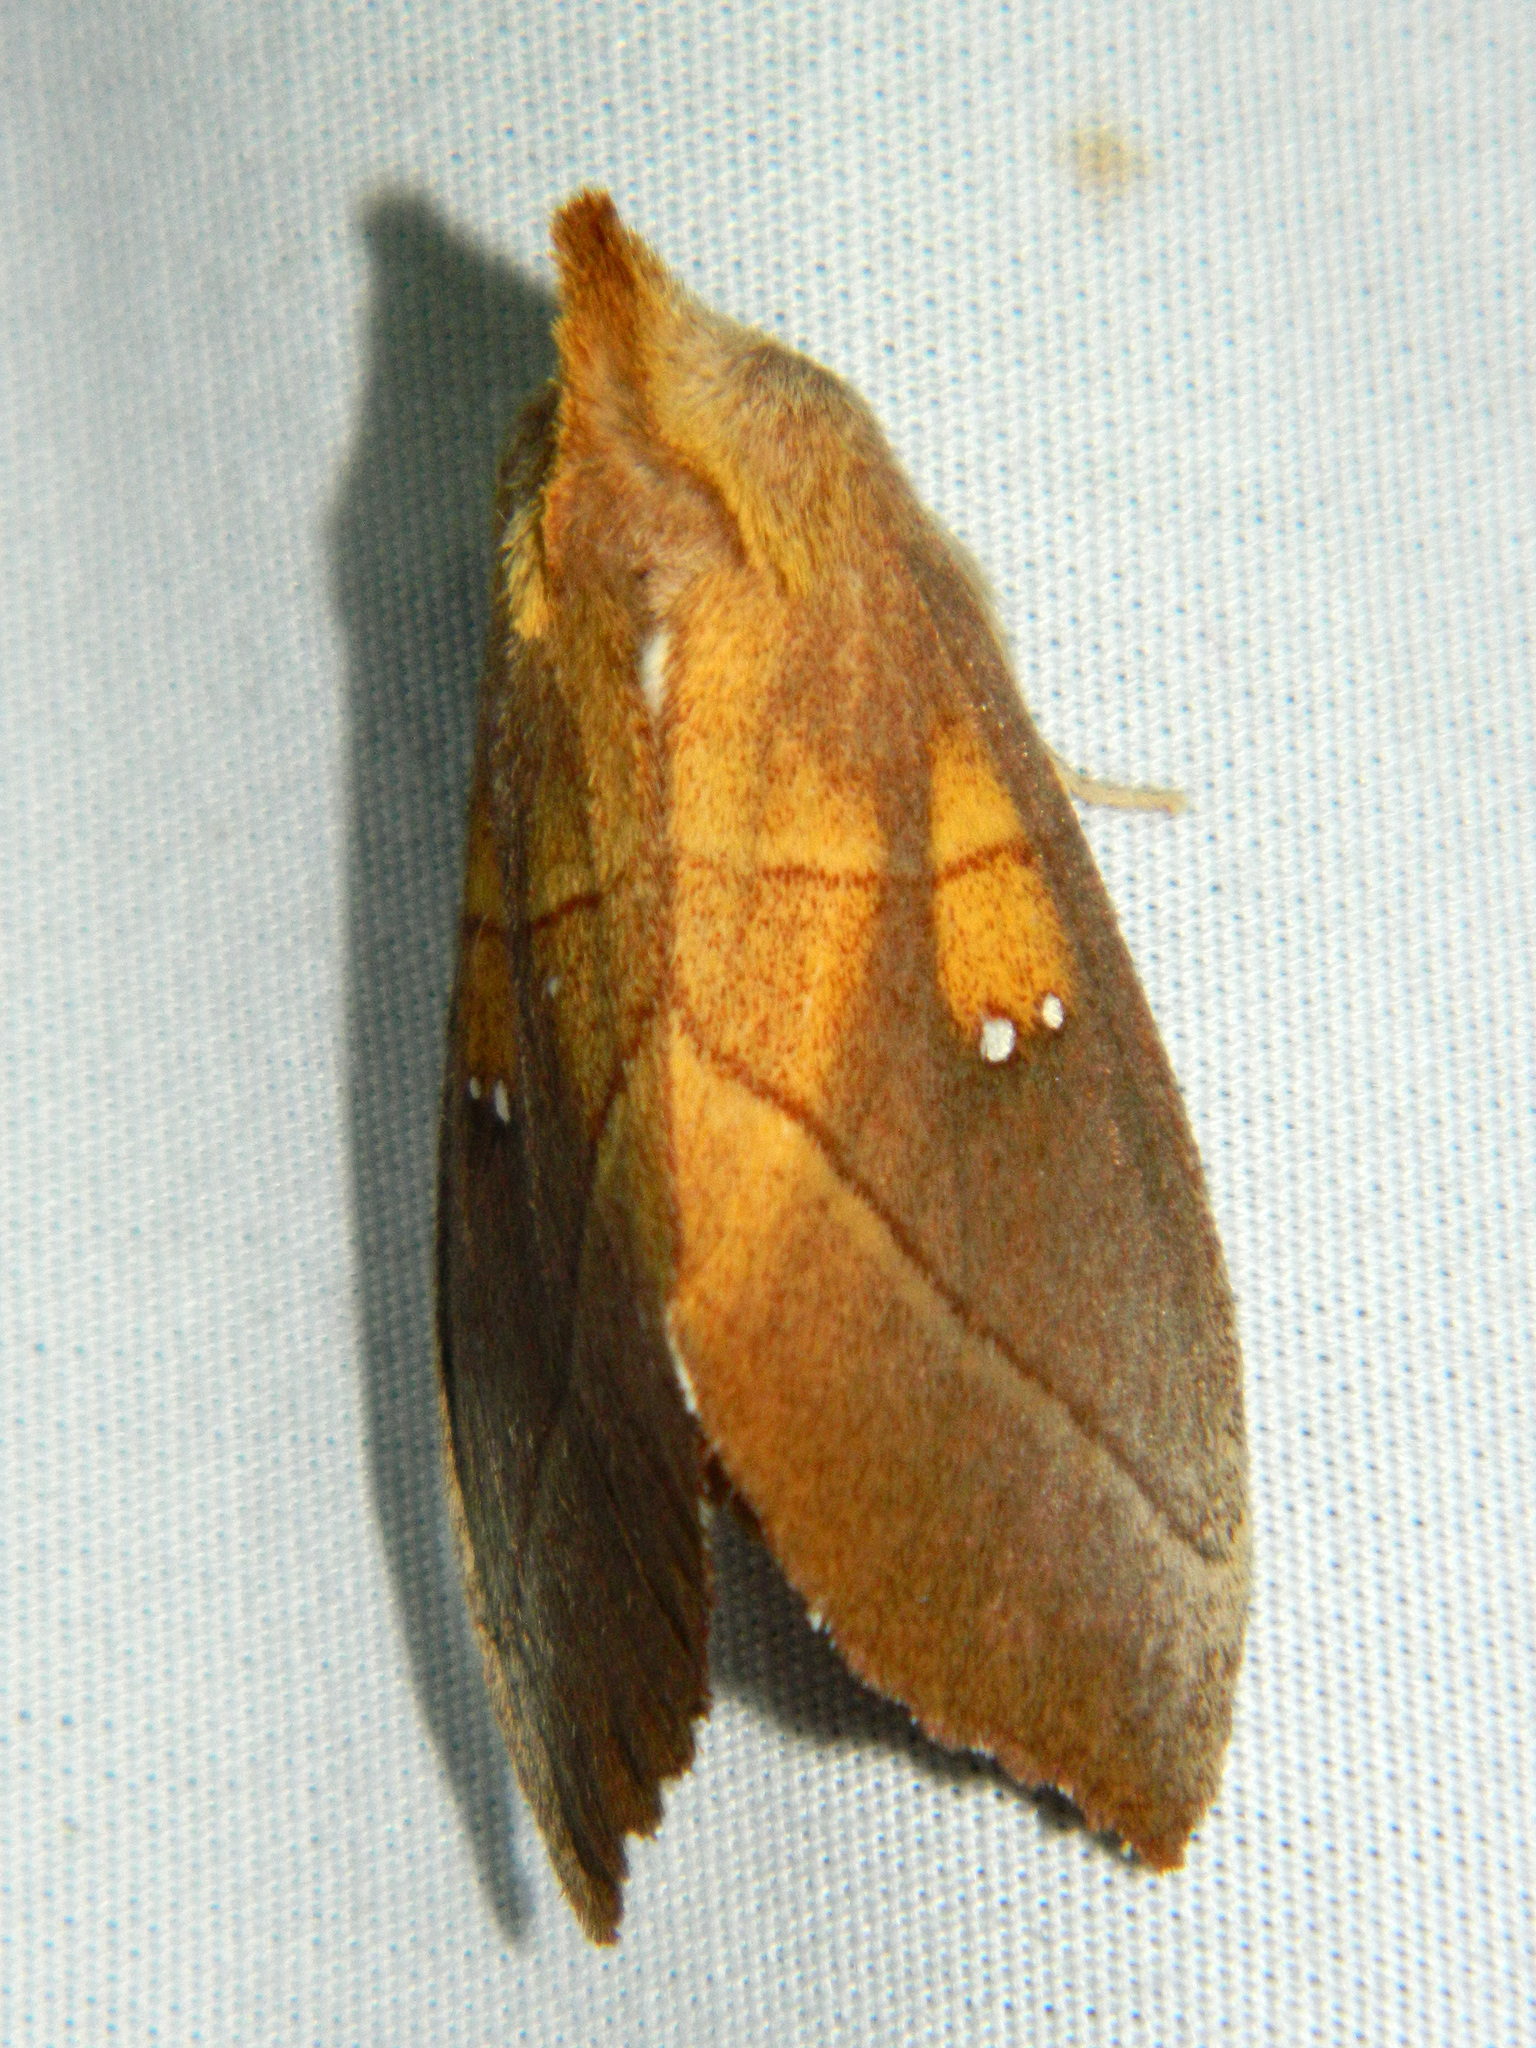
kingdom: Animalia
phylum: Arthropoda
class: Insecta
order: Lepidoptera
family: Notodontidae
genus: Nadata
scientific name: Nadata gibbosa
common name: White-dotted prominent
